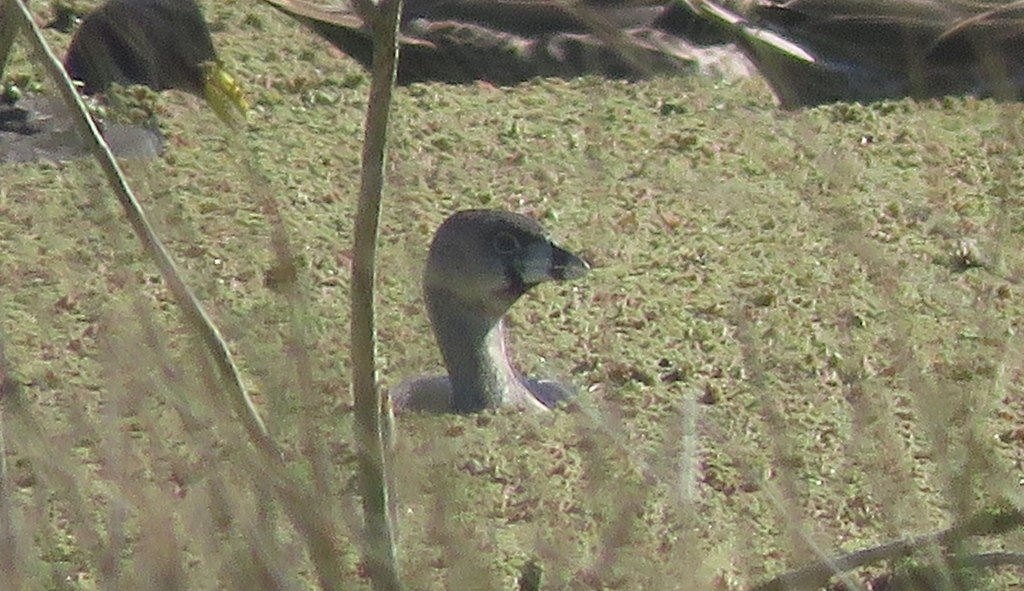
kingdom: Animalia
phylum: Chordata
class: Aves
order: Podicipediformes
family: Podicipedidae
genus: Podilymbus
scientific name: Podilymbus podiceps
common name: Pied-billed grebe
